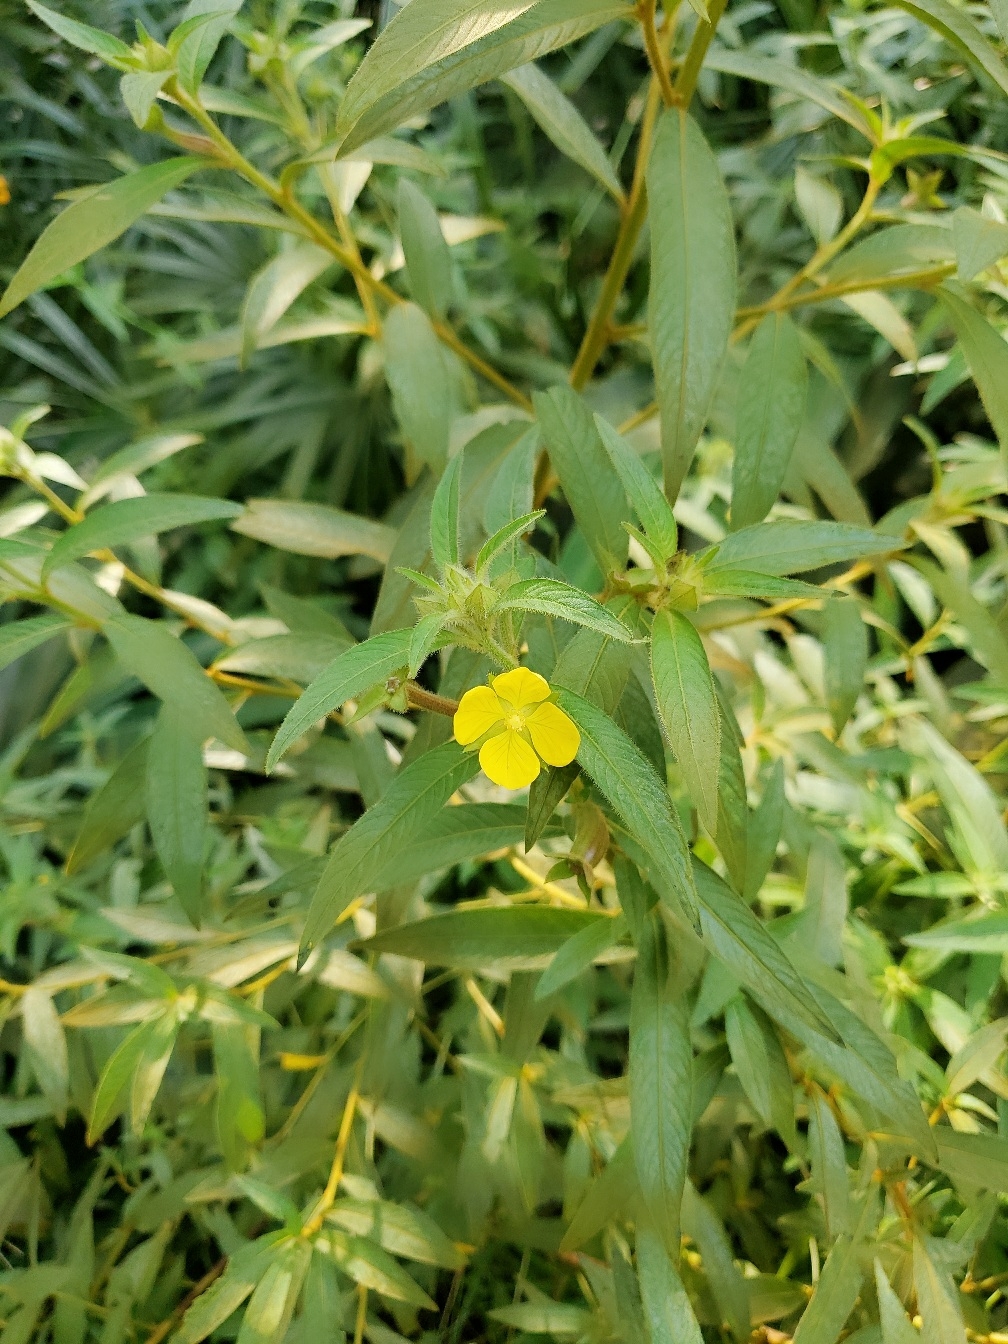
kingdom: Plantae
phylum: Tracheophyta
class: Magnoliopsida
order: Myrtales
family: Onagraceae
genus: Ludwigia
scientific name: Ludwigia octovalvis
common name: Water-primrose
